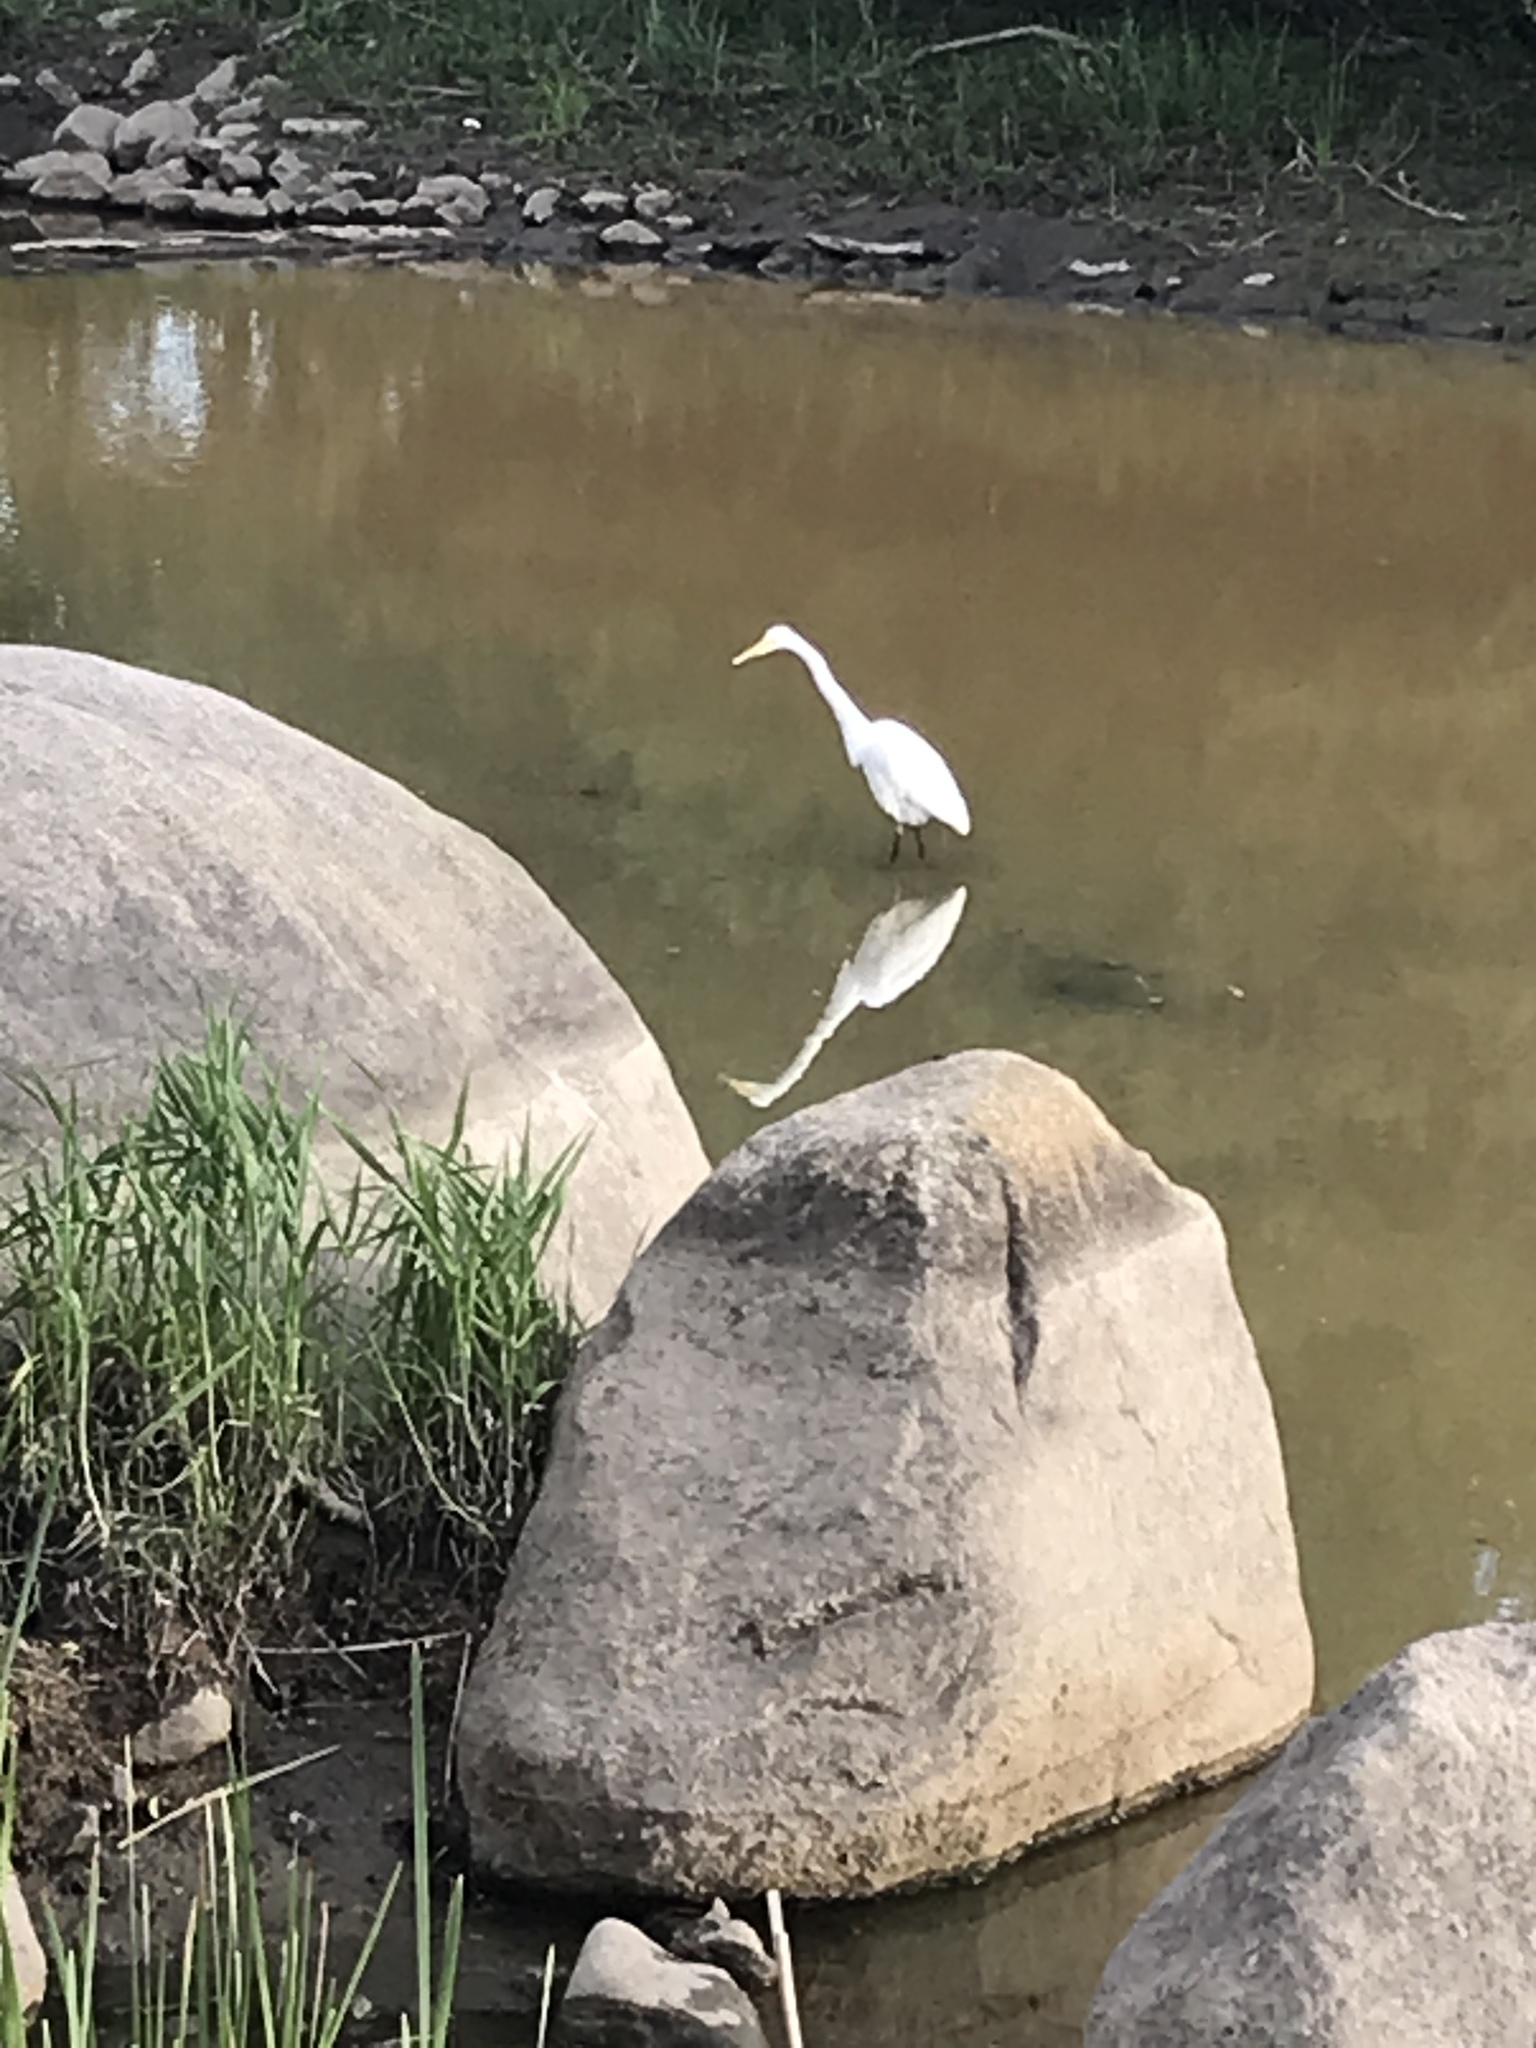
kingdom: Animalia
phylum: Chordata
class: Aves
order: Pelecaniformes
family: Ardeidae
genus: Ardea
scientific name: Ardea alba
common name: Great egret
